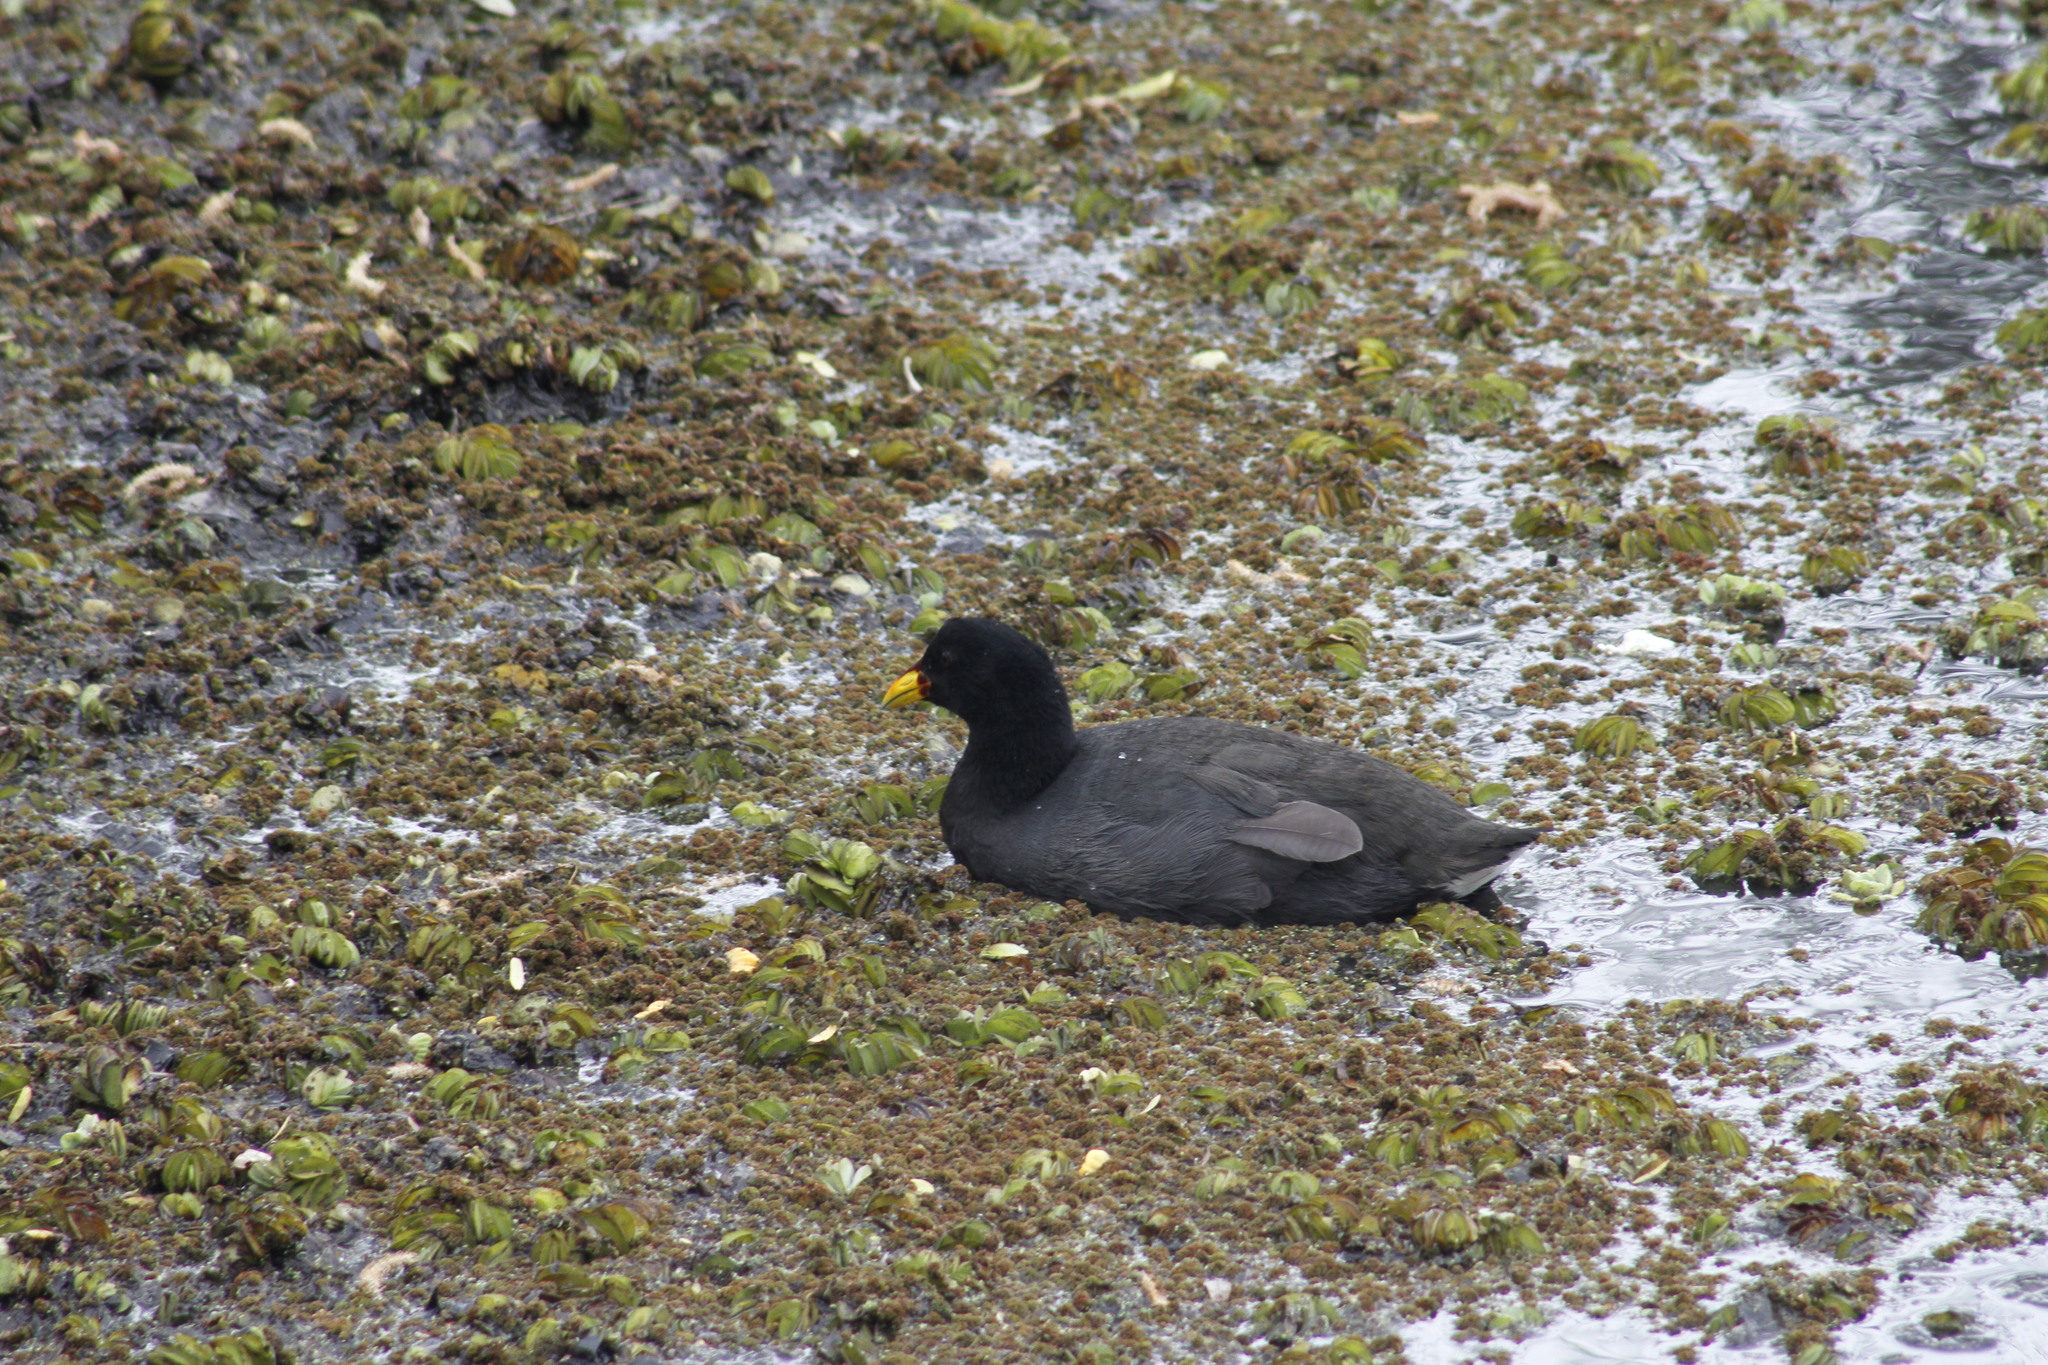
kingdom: Animalia
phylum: Chordata
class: Aves
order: Gruiformes
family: Rallidae
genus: Gallinula
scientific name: Gallinula chloropus
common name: Common moorhen
